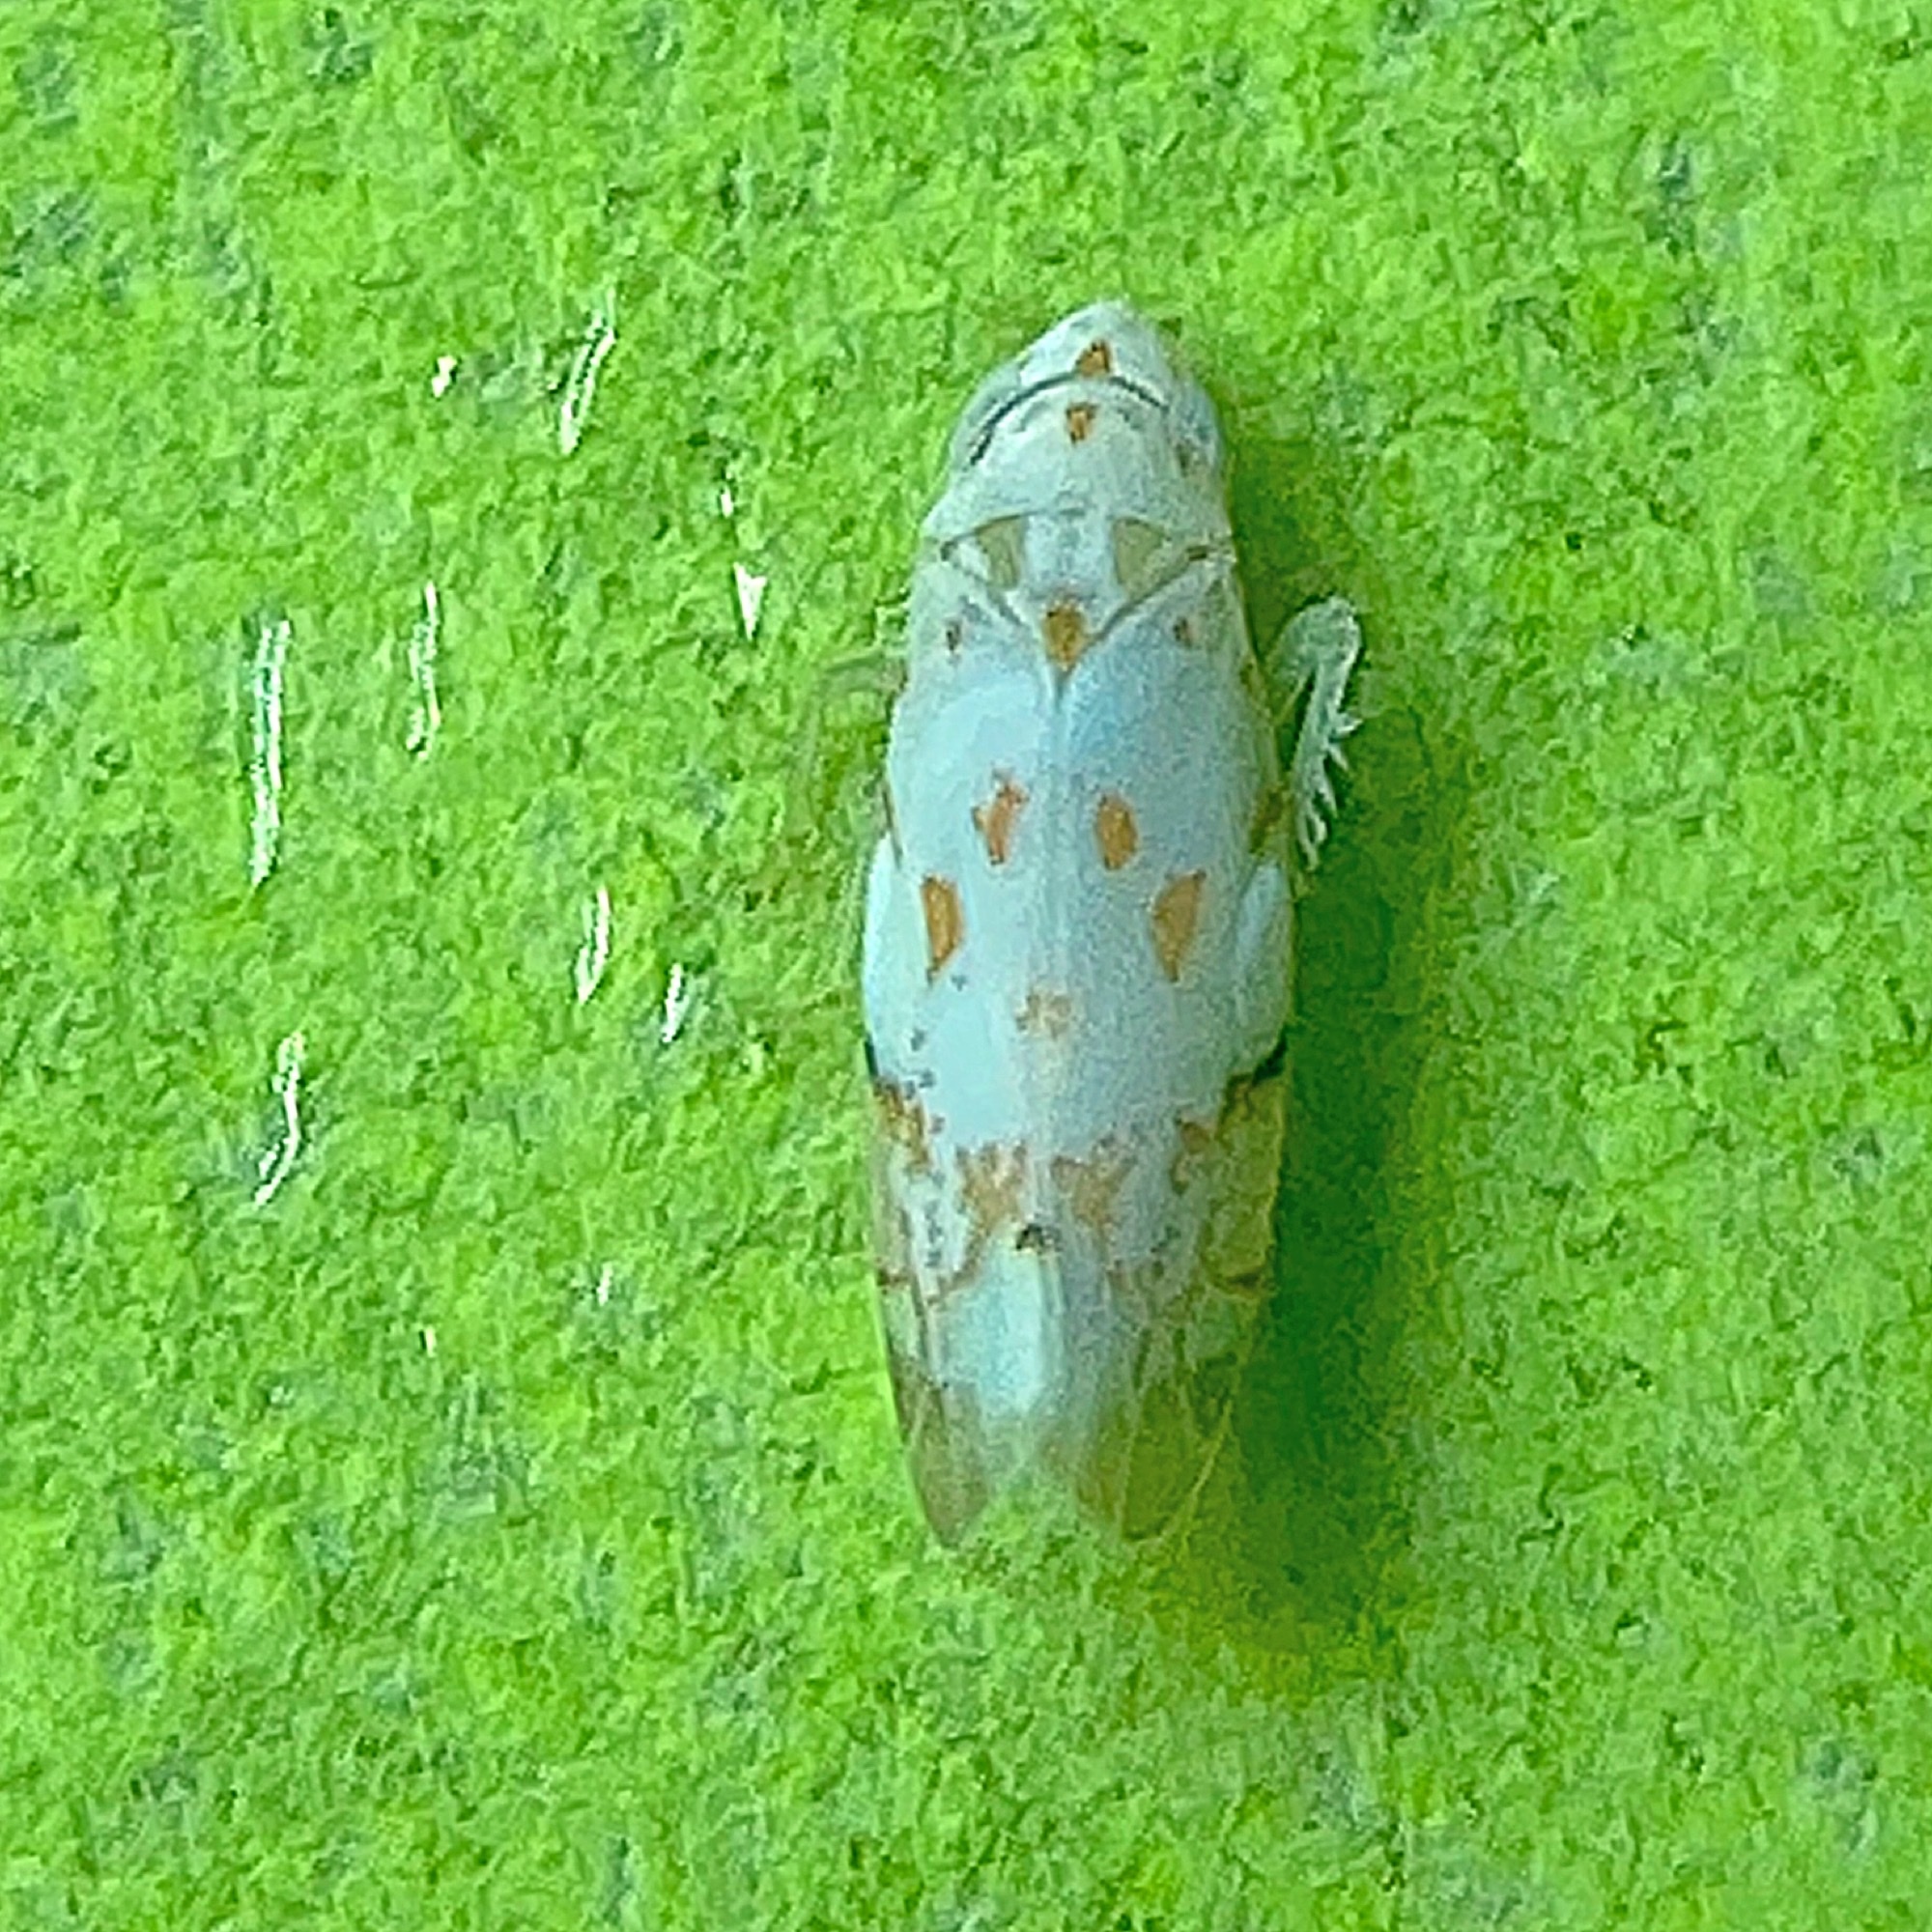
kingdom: Animalia
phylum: Arthropoda
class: Insecta
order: Hemiptera
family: Cicadellidae
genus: Eratoneura
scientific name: Eratoneura stephensoni
